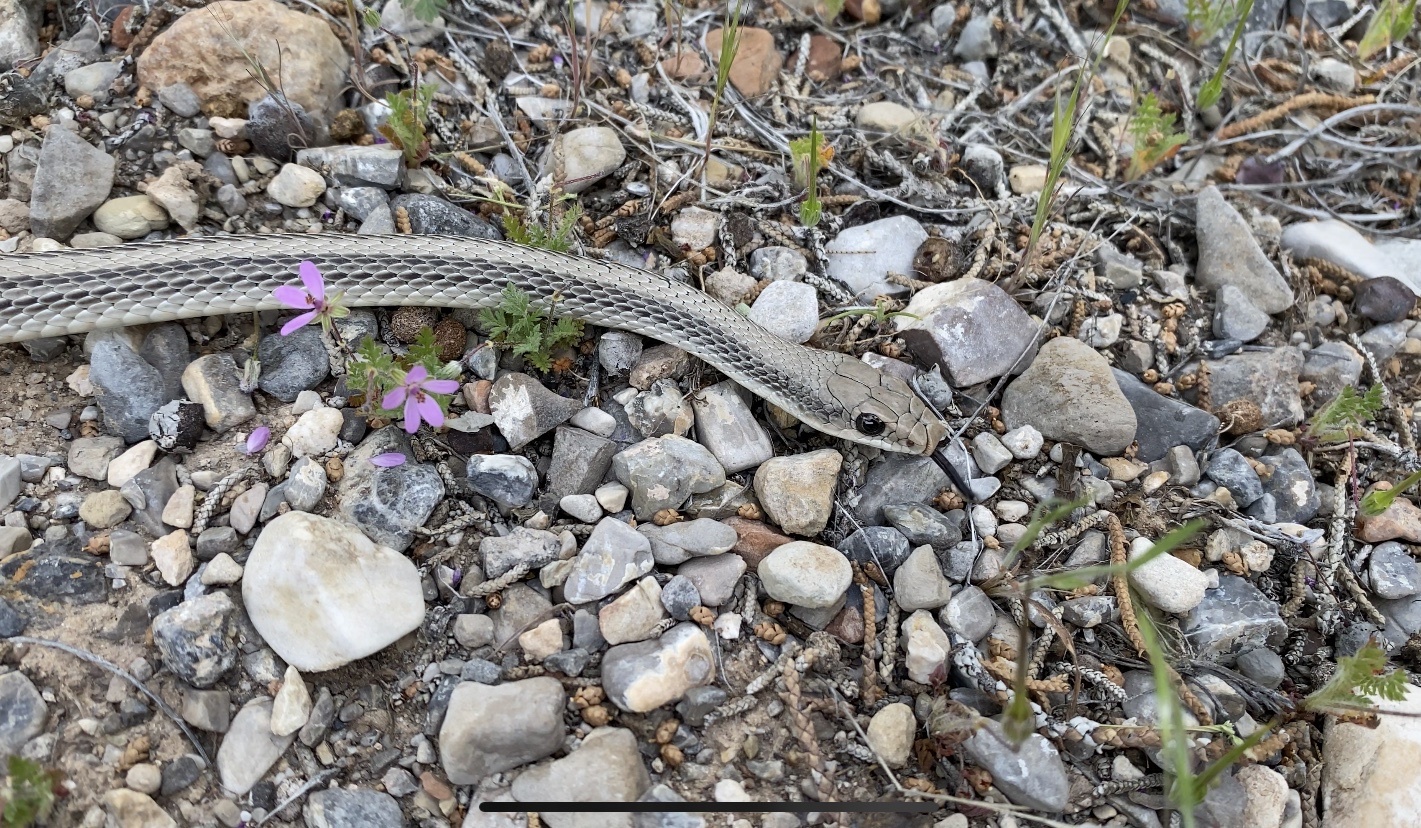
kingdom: Animalia
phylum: Chordata
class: Squamata
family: Colubridae
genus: Salvadora
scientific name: Salvadora hexalepis
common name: Western patchnose snake
